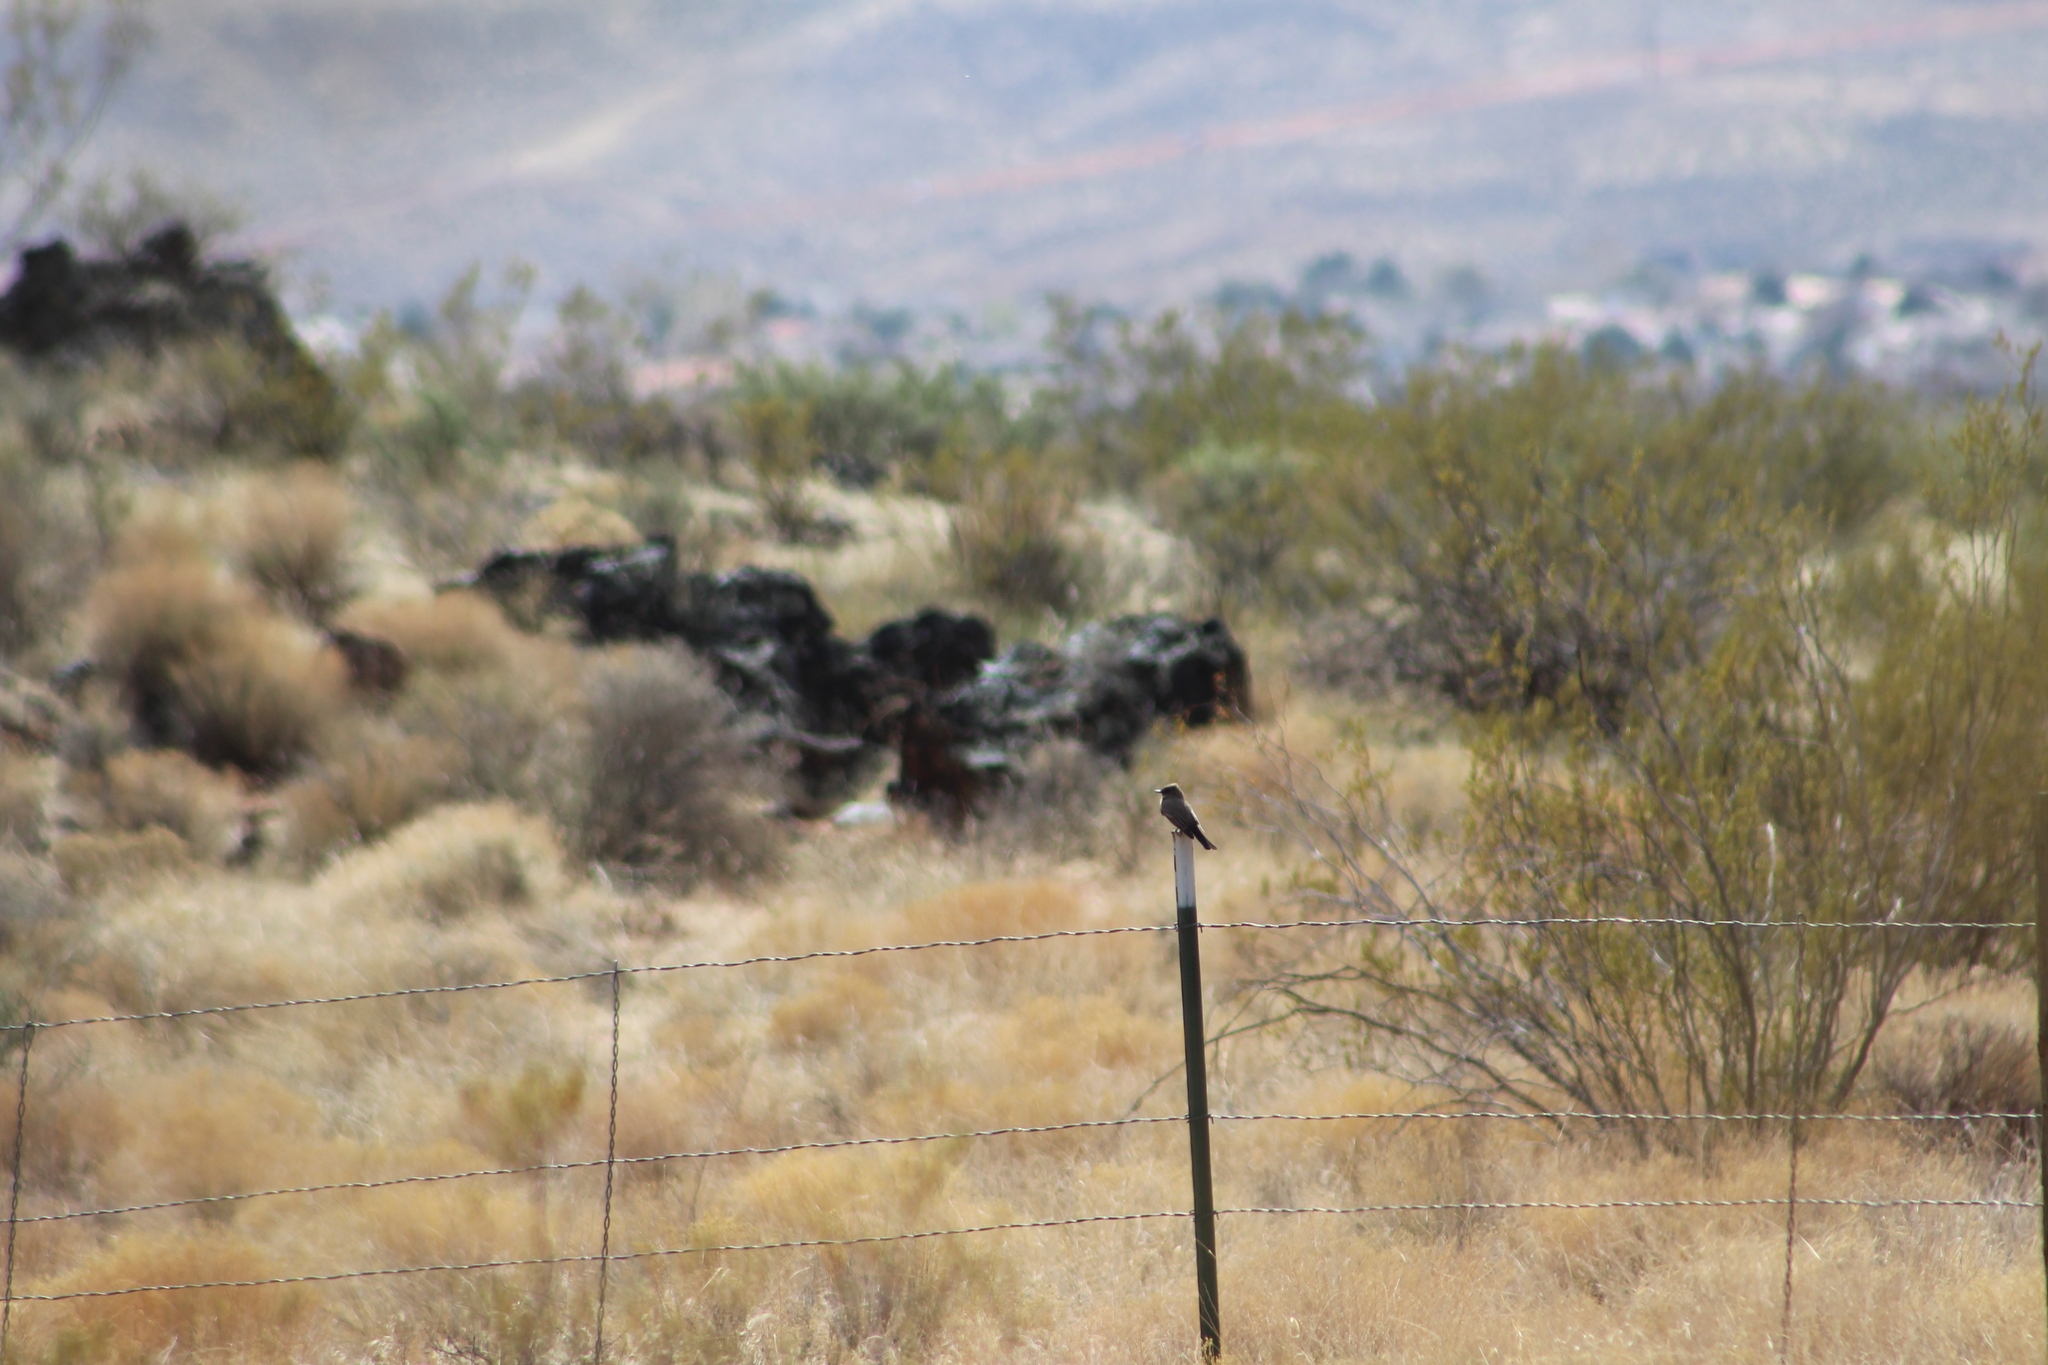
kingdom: Animalia
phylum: Chordata
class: Aves
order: Passeriformes
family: Tyrannidae
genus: Sayornis
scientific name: Sayornis saya
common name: Say's phoebe
